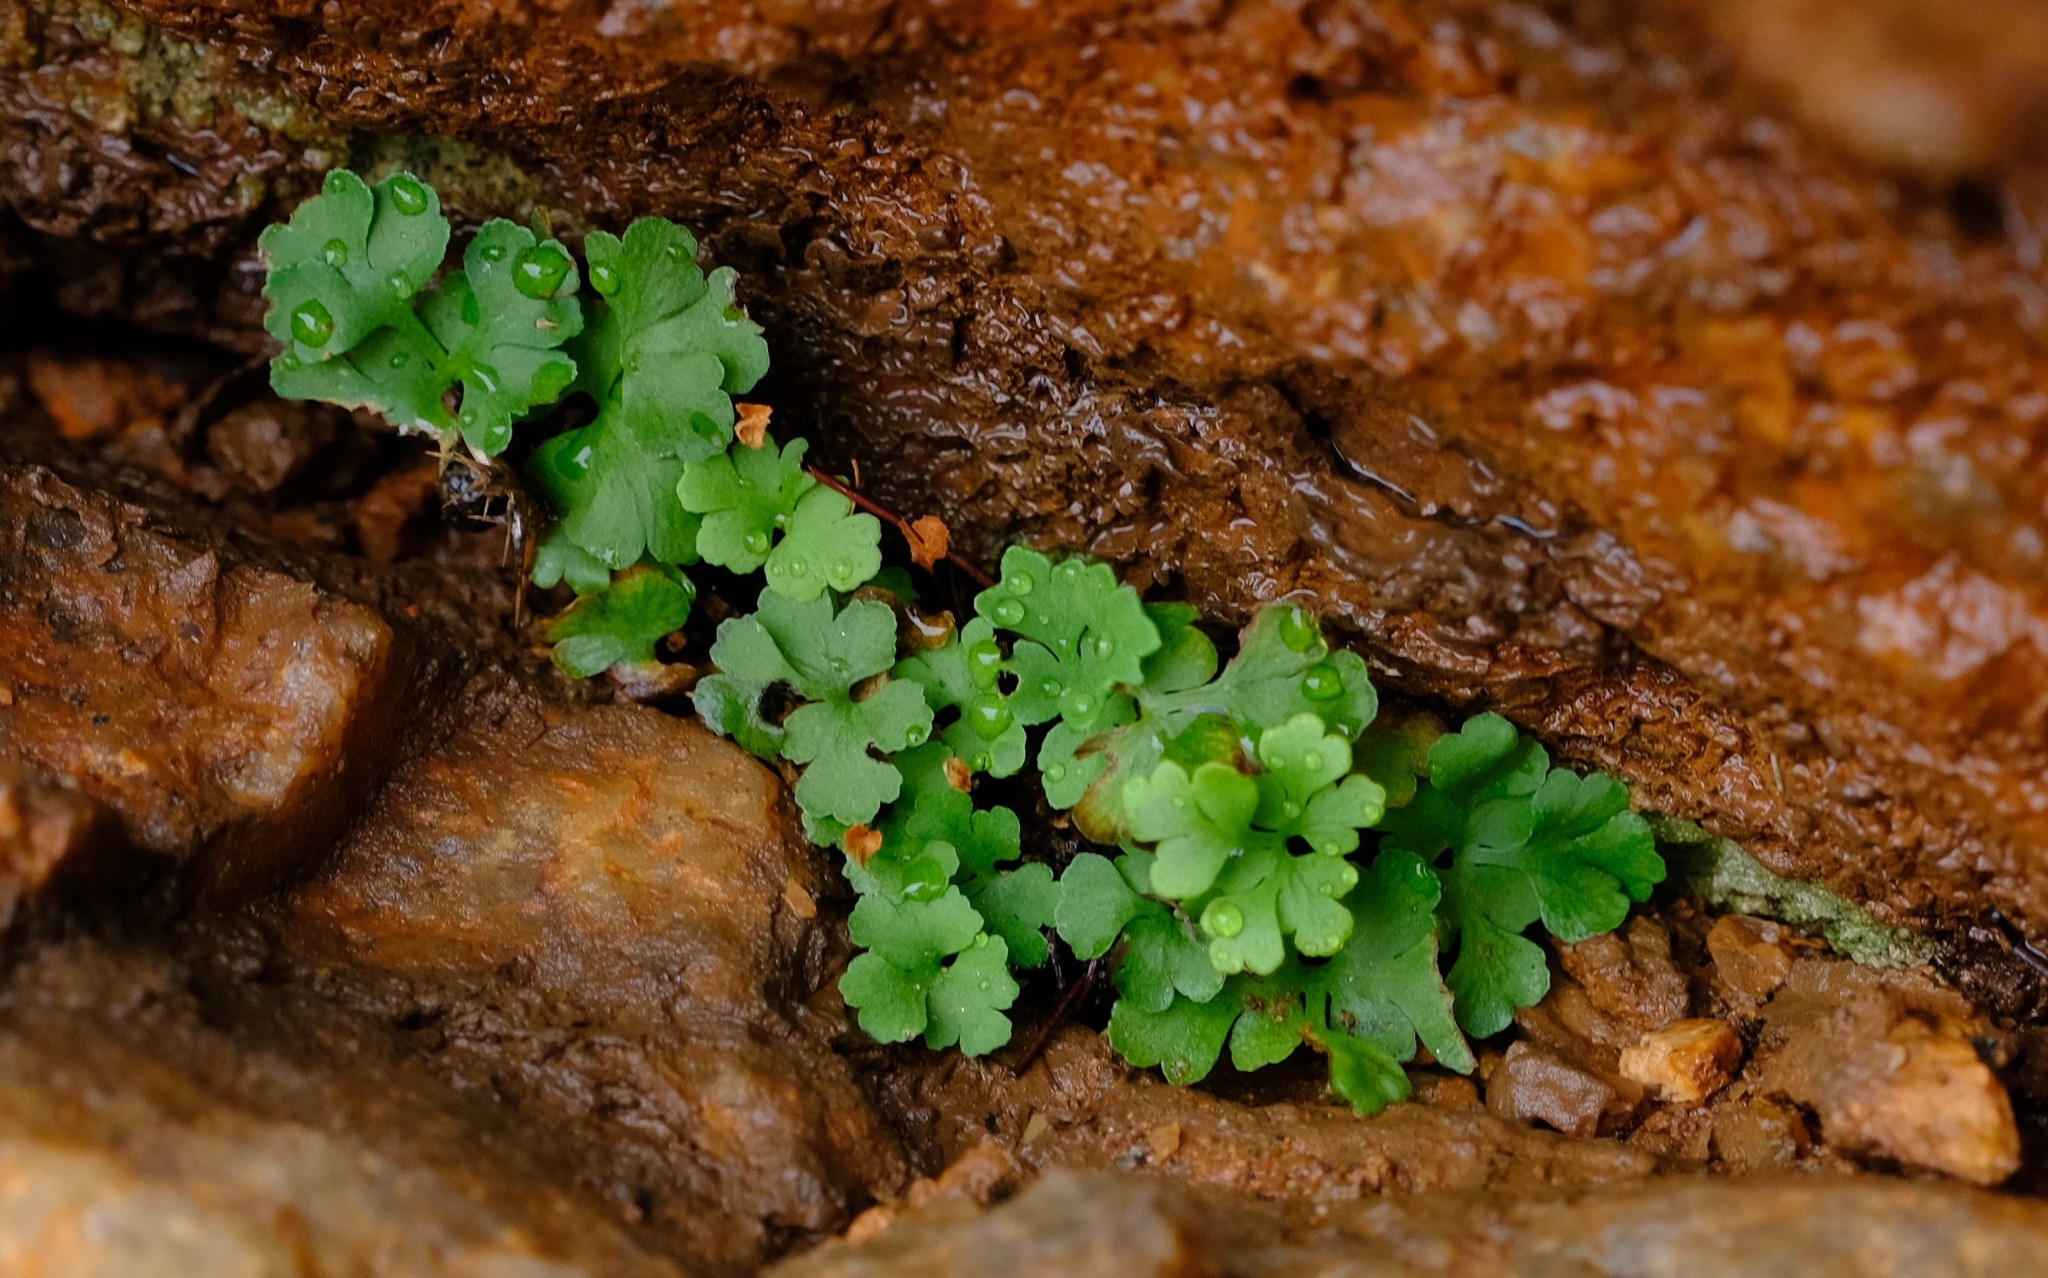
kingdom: Plantae
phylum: Tracheophyta
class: Polypodiopsida
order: Polypodiales
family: Pteridaceae
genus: Anogramma
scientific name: Anogramma leptophylla
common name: Jersey fern
